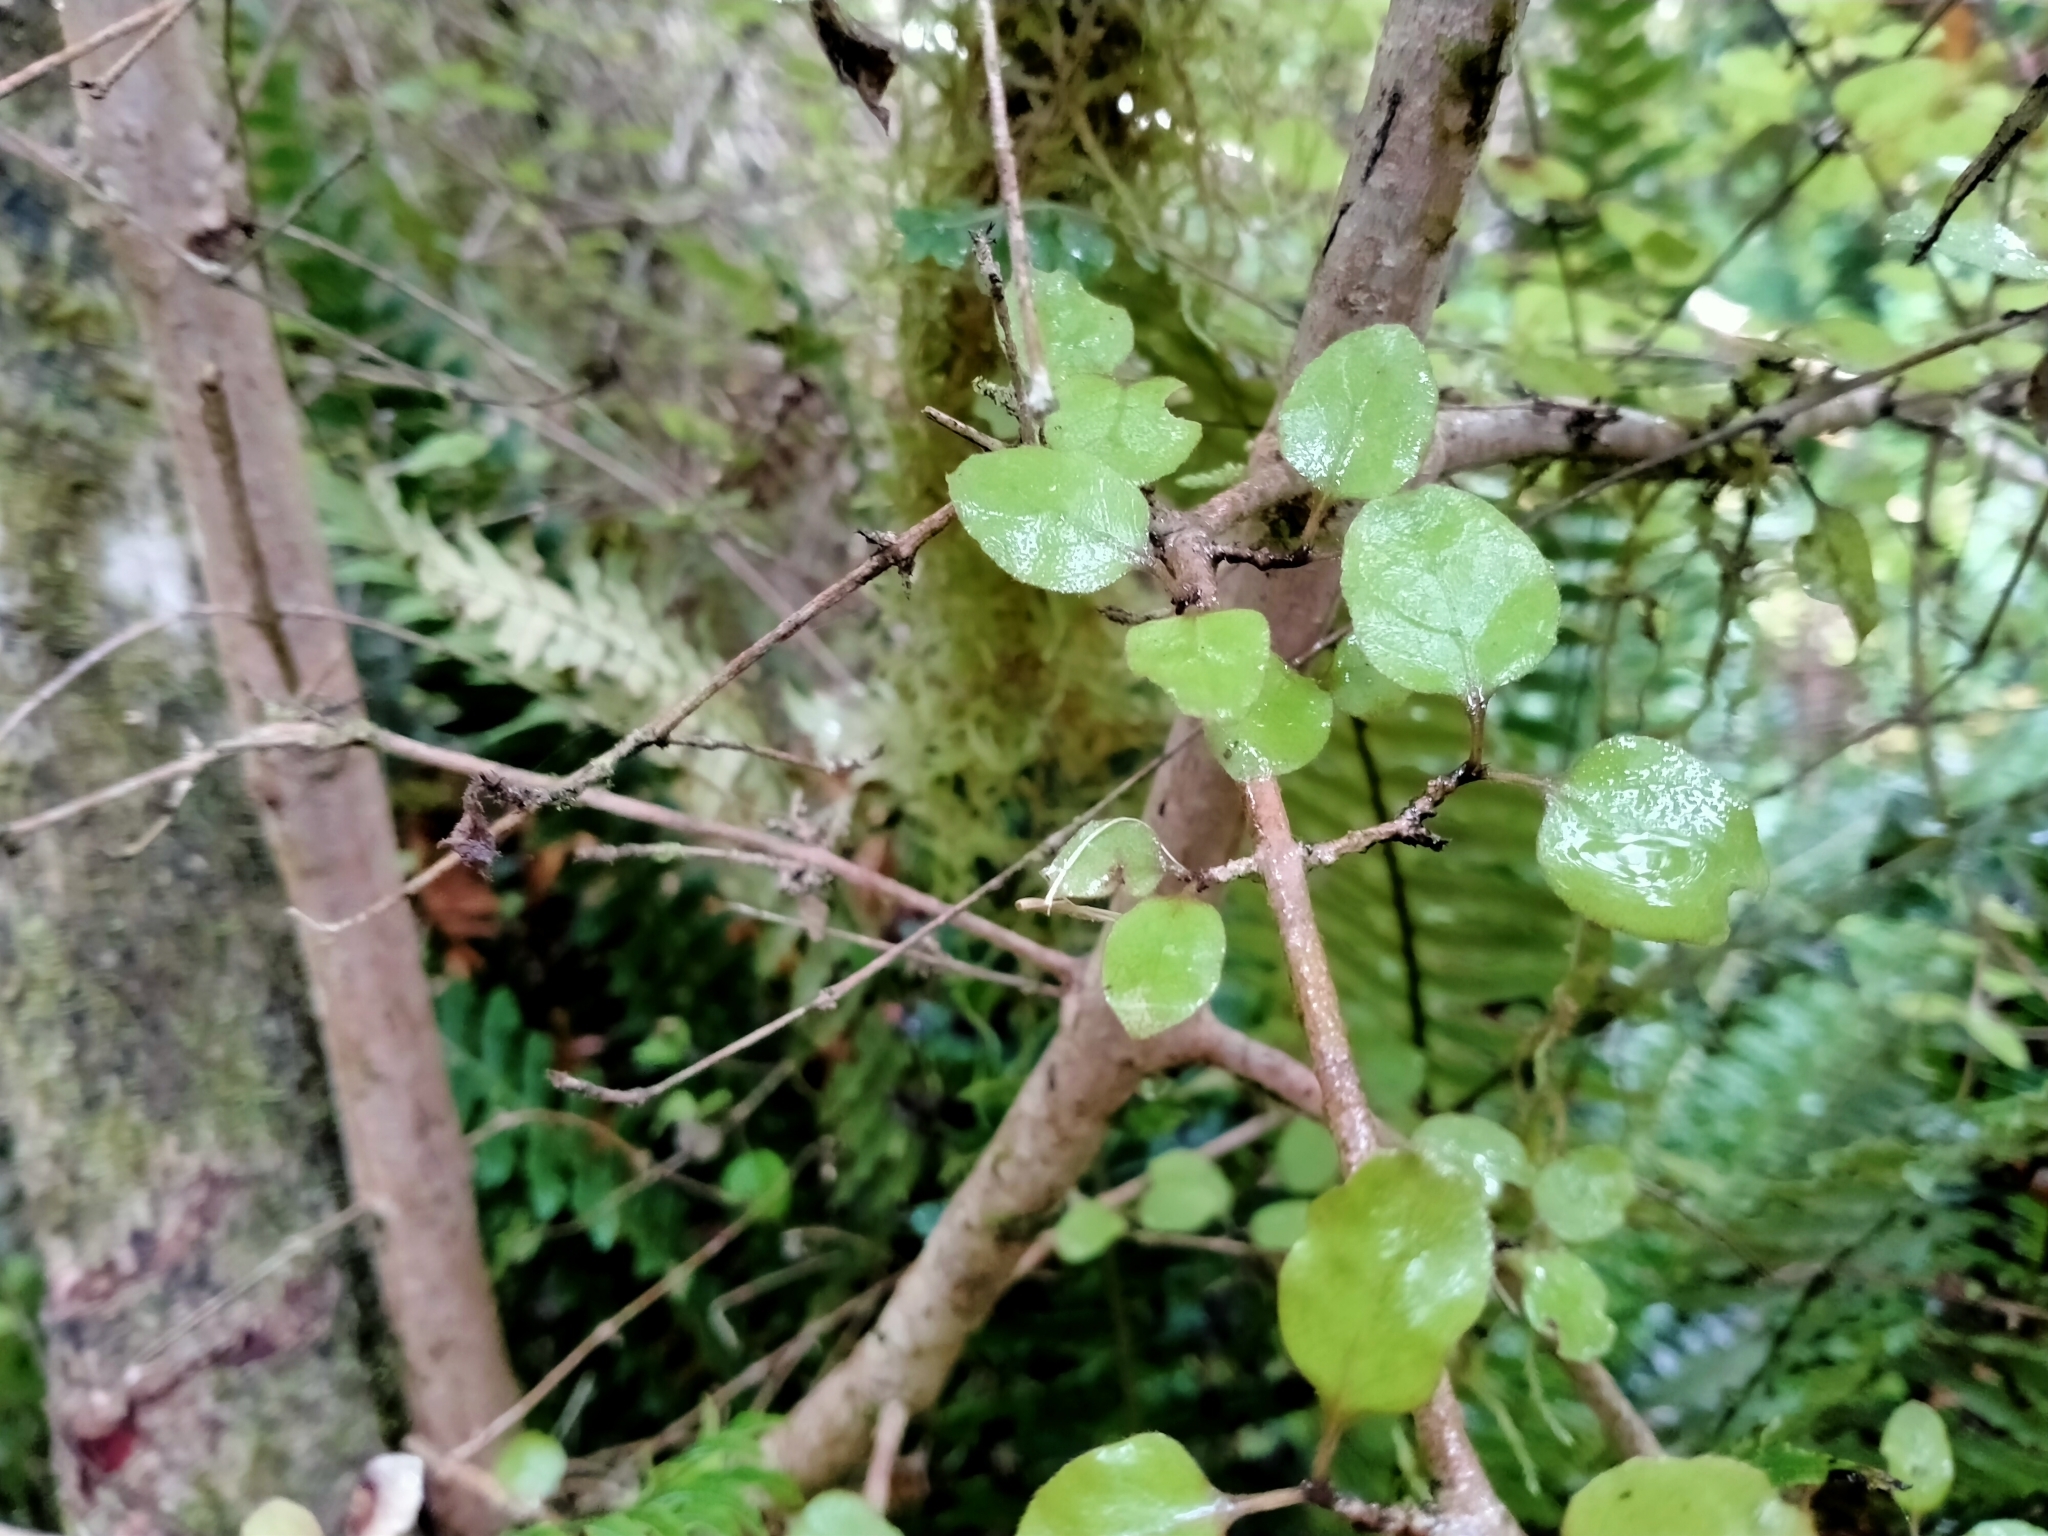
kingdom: Plantae
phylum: Tracheophyta
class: Magnoliopsida
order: Gentianales
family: Rubiaceae
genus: Coprosma
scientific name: Coprosma rotundifolia
